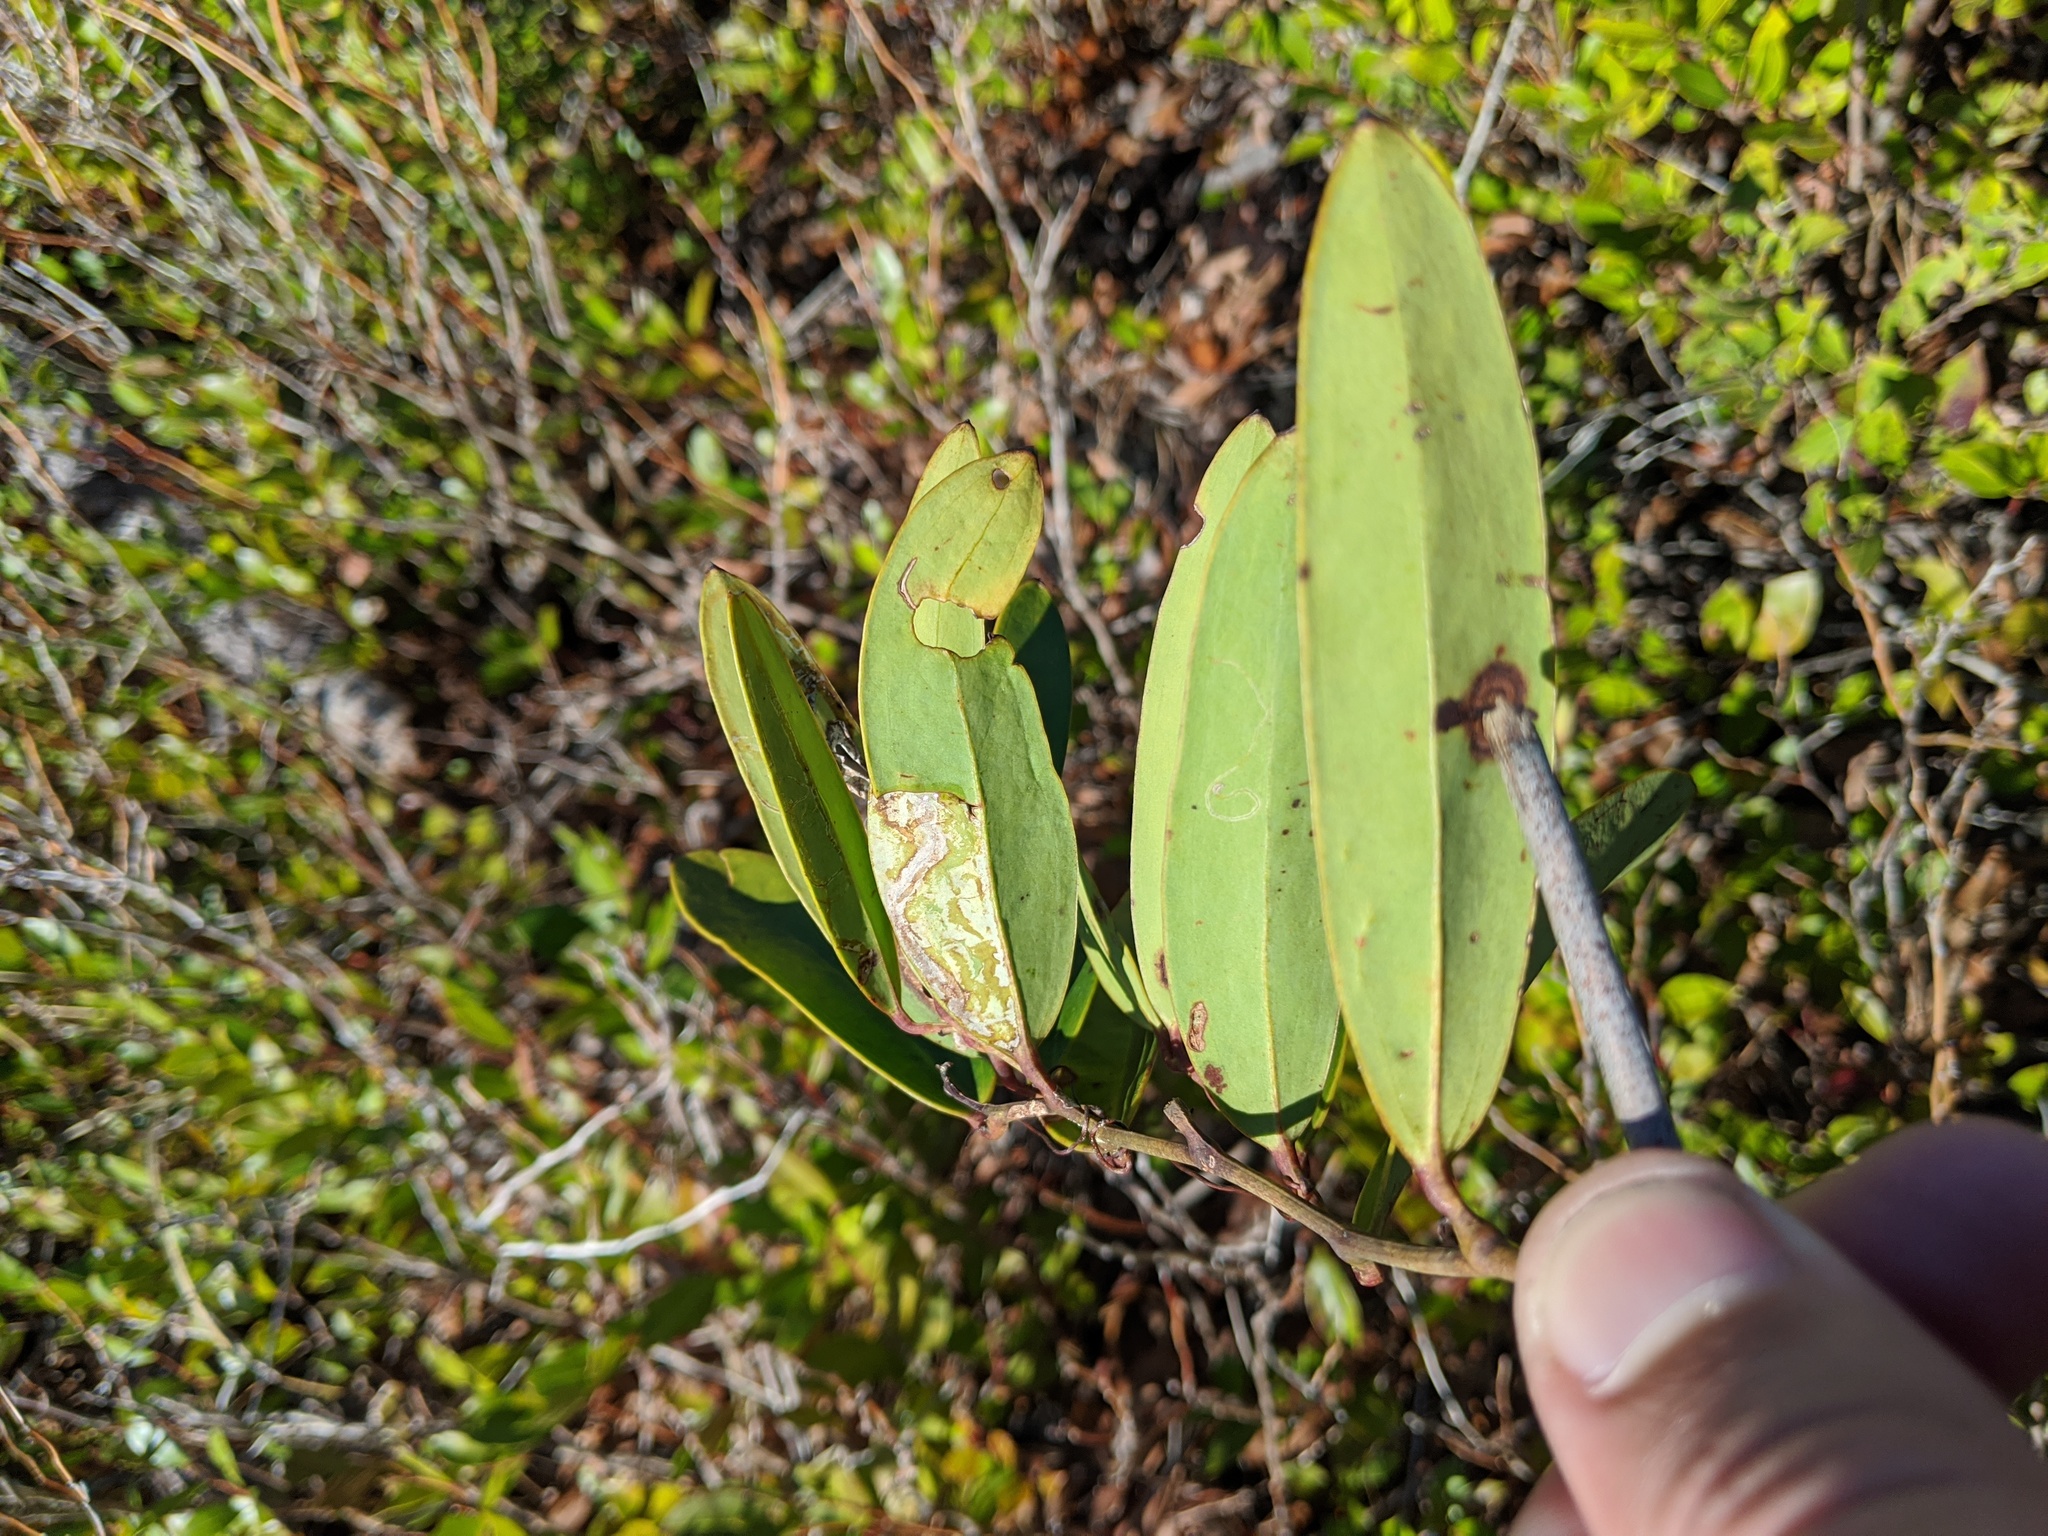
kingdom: Plantae
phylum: Tracheophyta
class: Liliopsida
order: Liliales
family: Smilacaceae
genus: Smilax
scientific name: Smilax laurifolia
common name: Bamboovine
